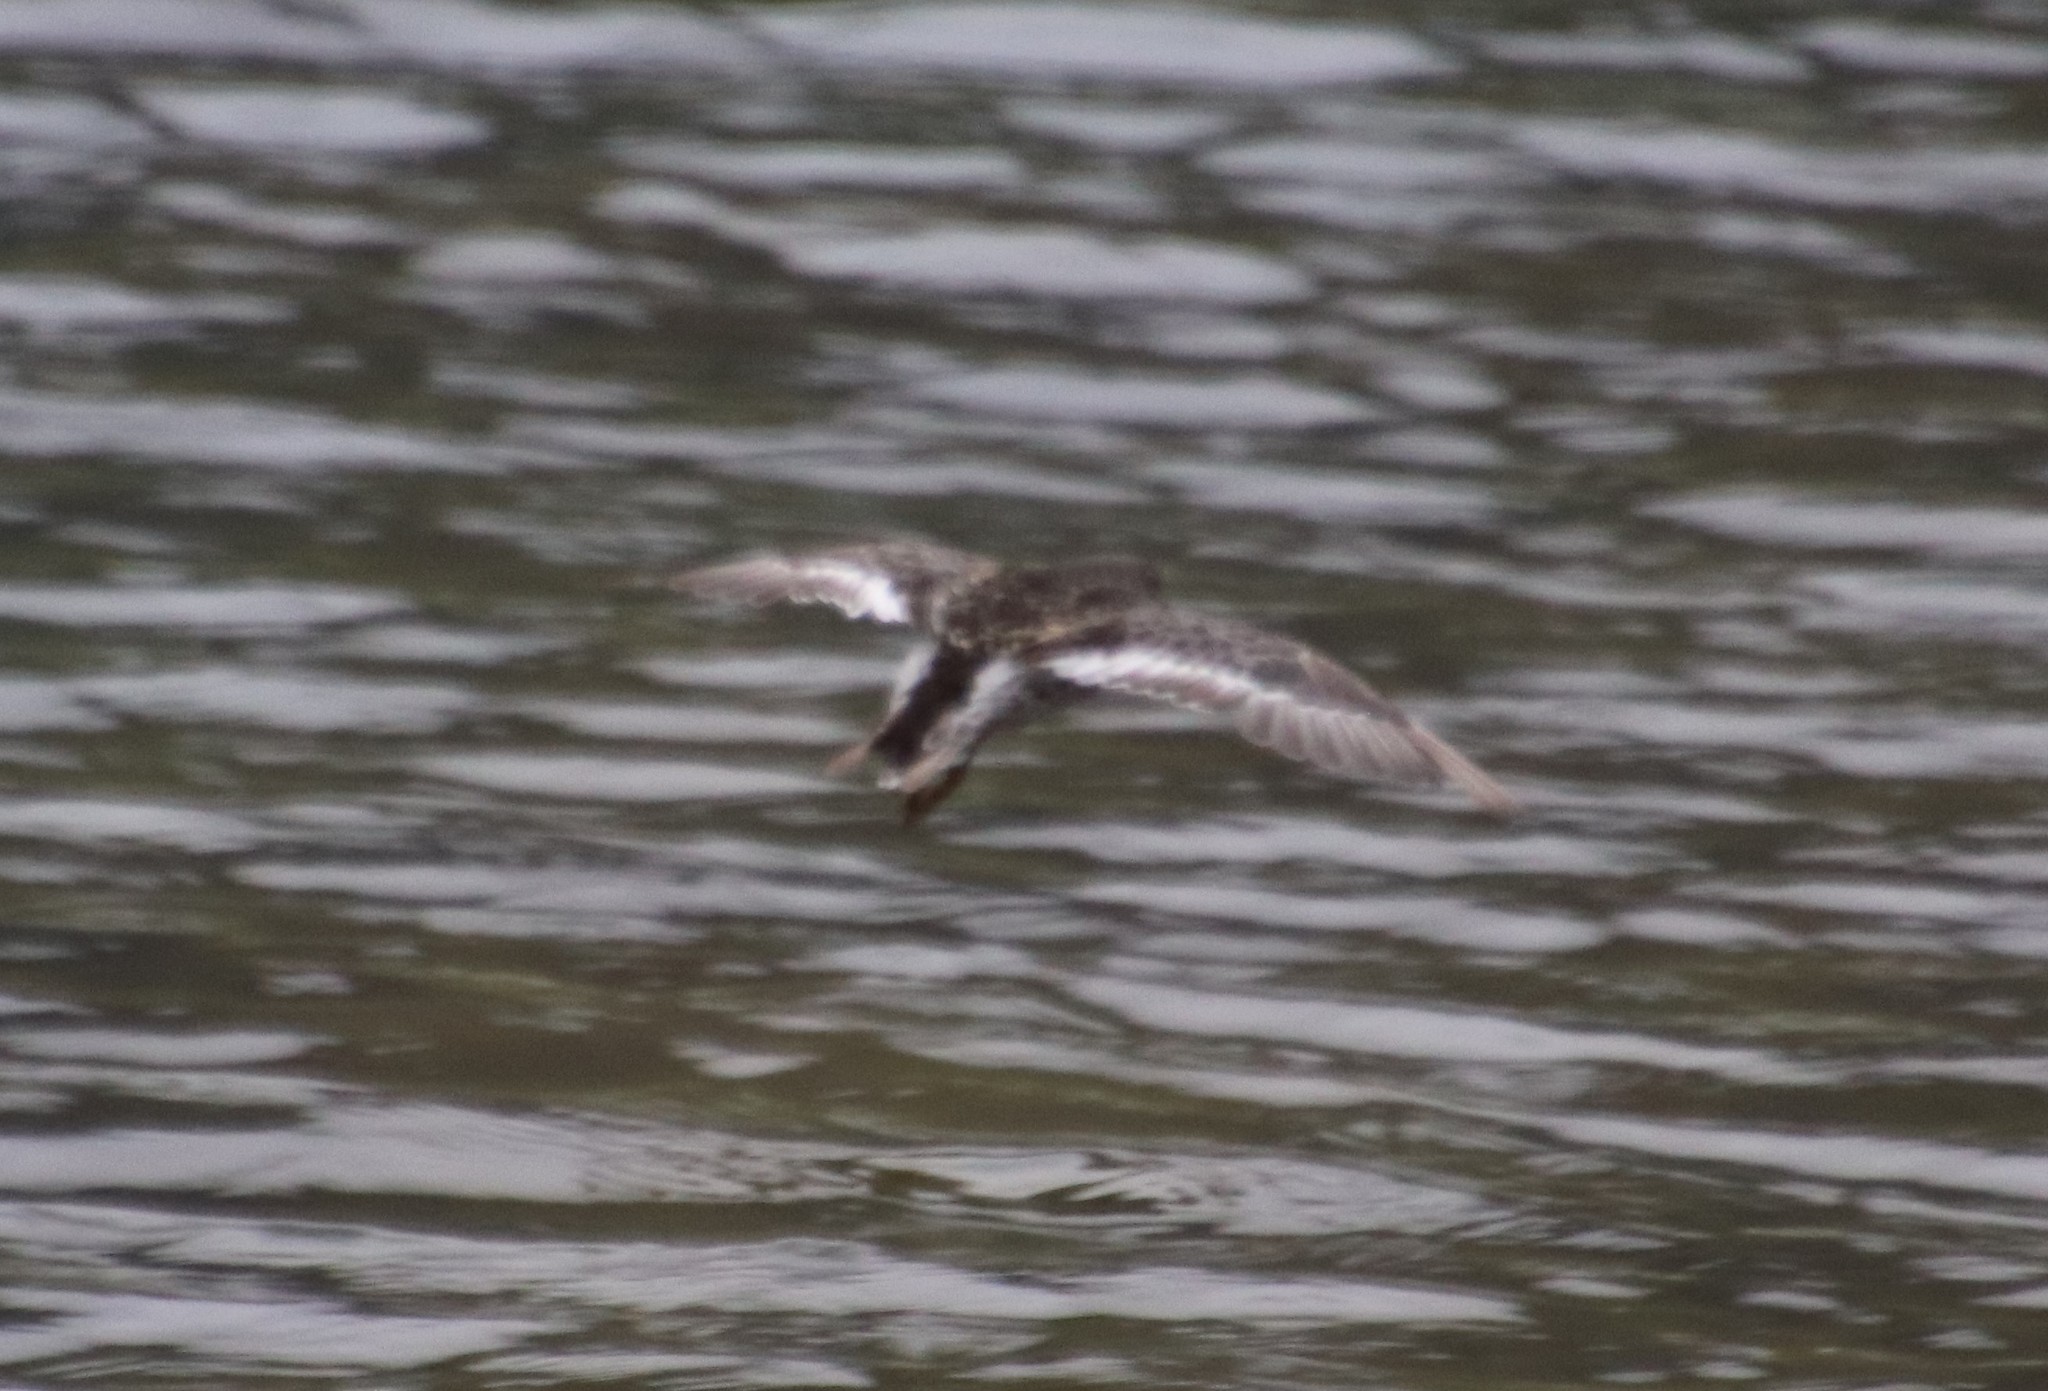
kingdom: Animalia
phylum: Chordata
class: Aves
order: Charadriiformes
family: Scolopacidae
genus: Calidris
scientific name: Calidris maritima
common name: Purple sandpiper
